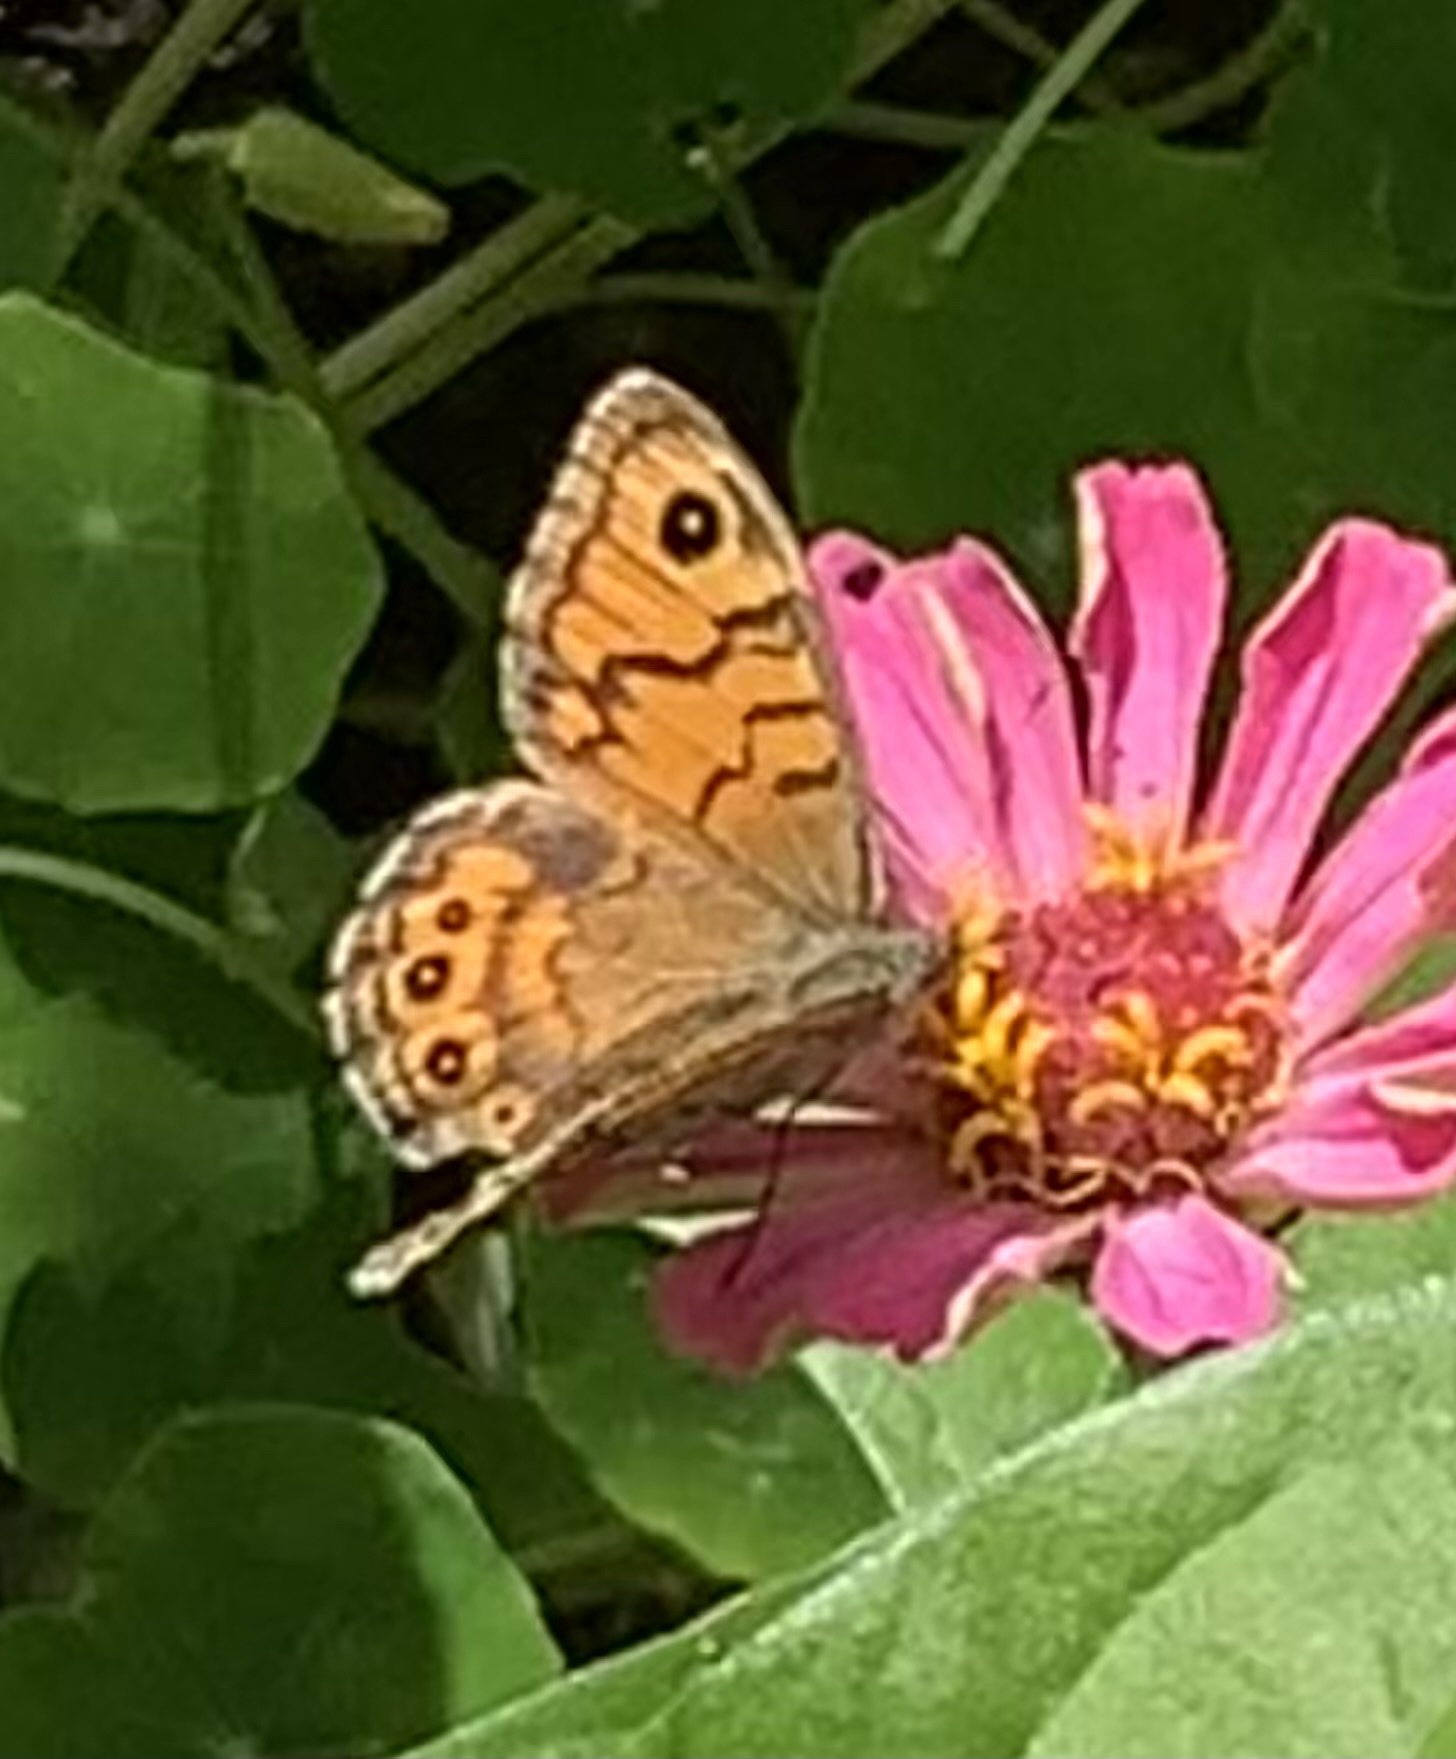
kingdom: Animalia
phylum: Arthropoda
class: Insecta
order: Lepidoptera
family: Nymphalidae
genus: Pararge
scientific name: Pararge Lasiommata megera
